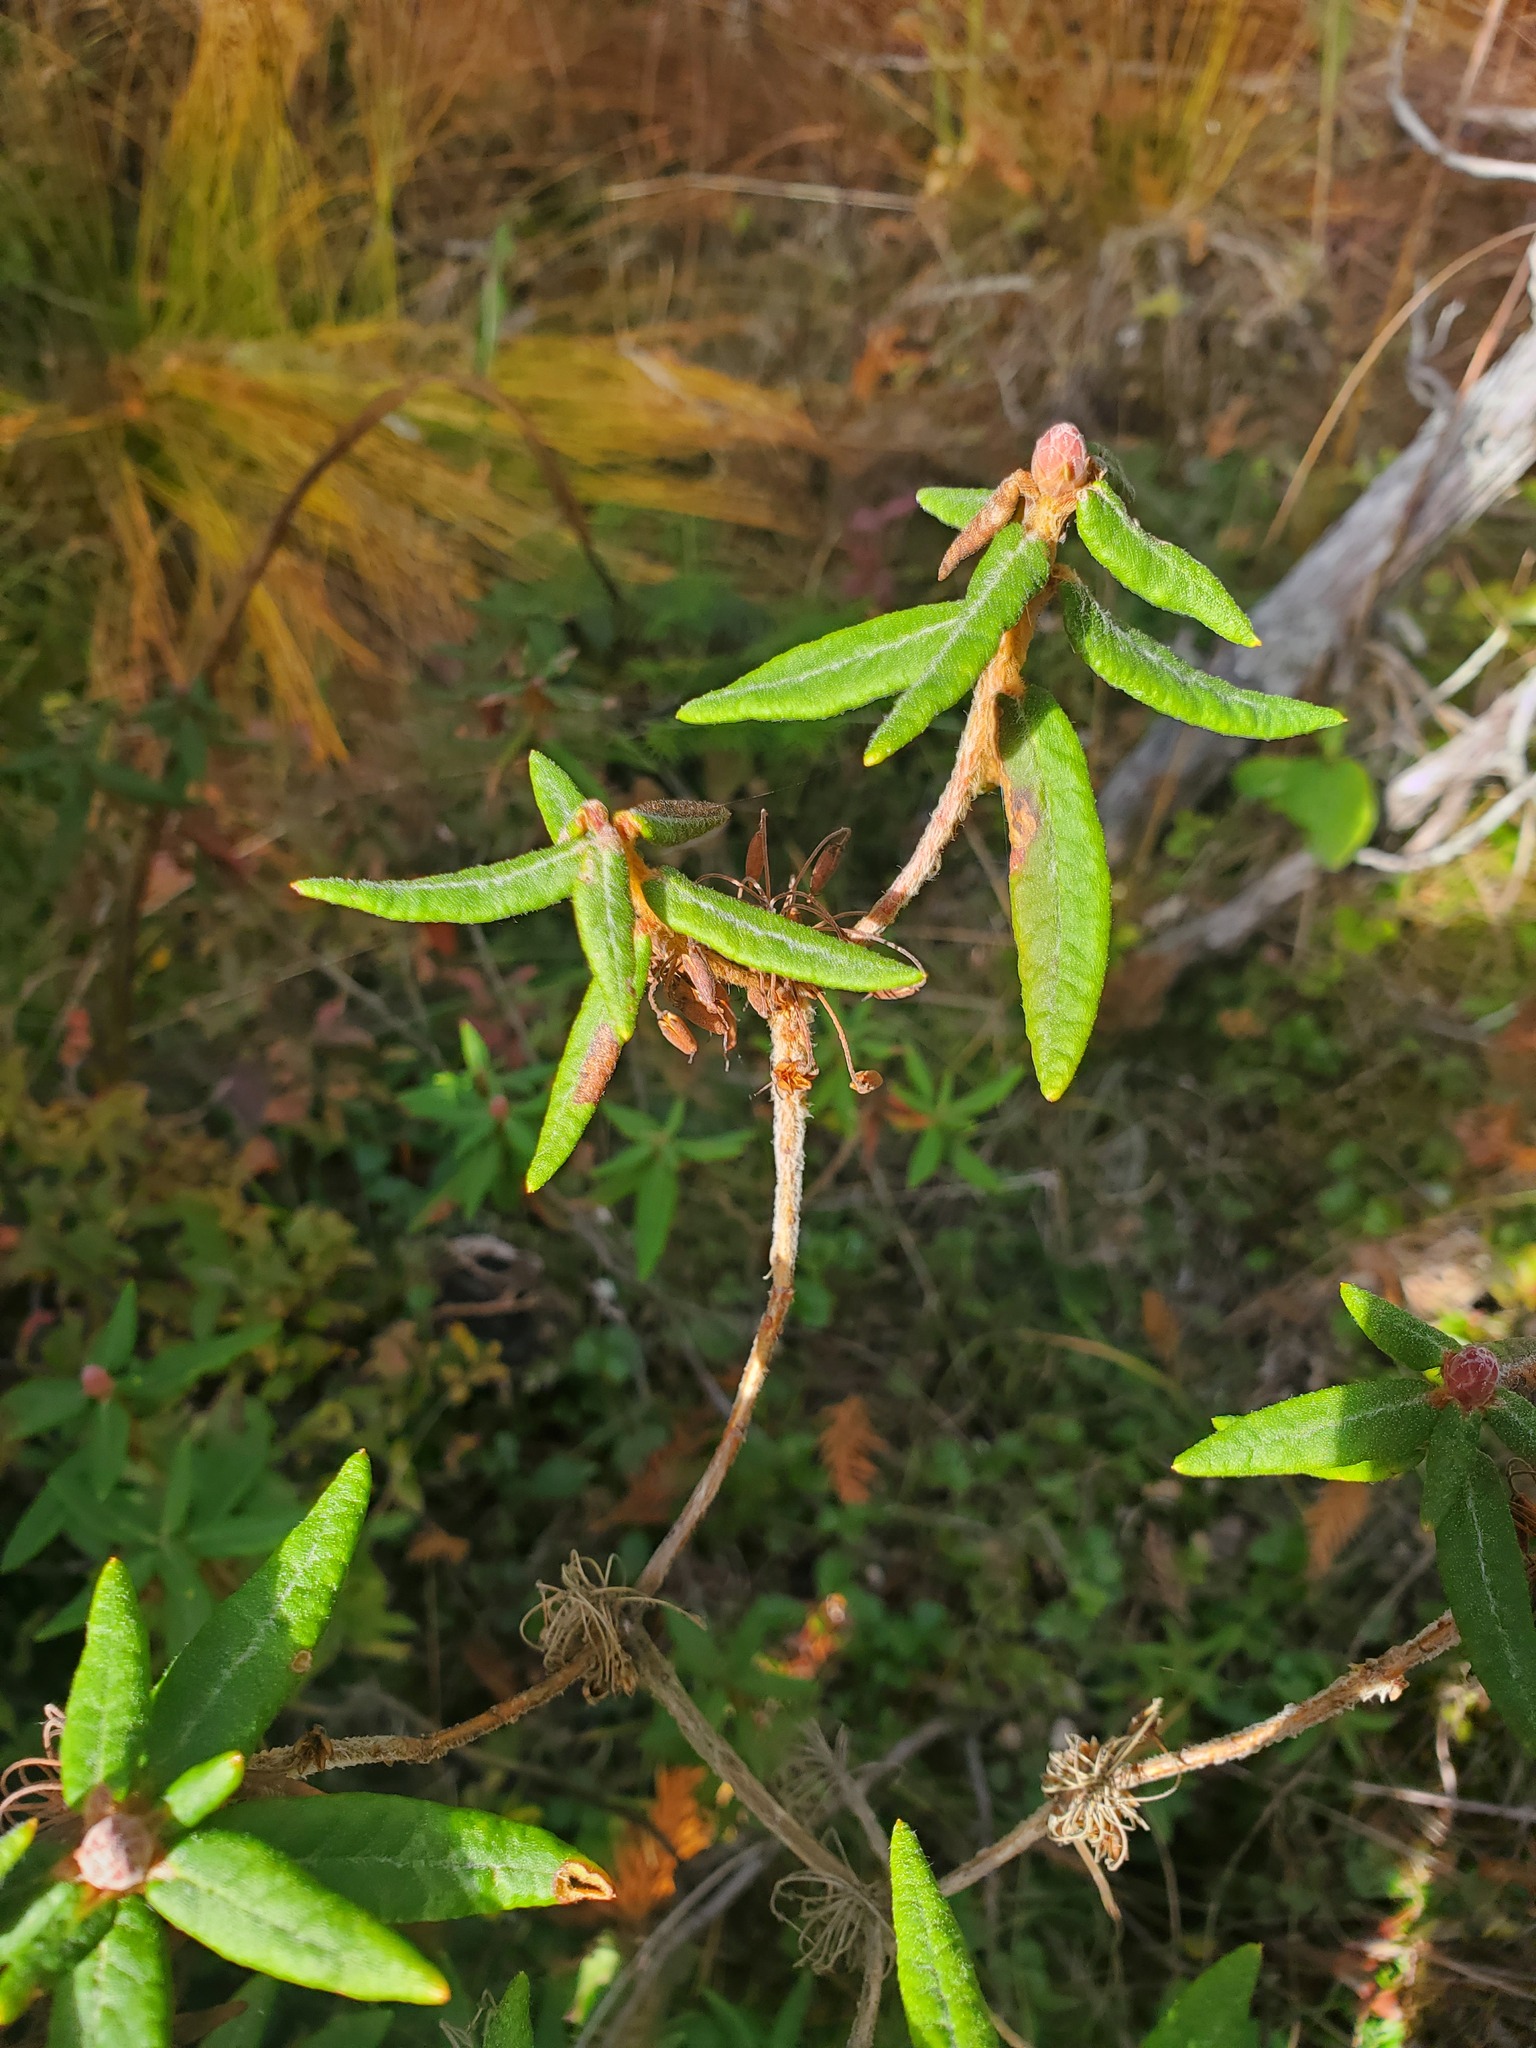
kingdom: Plantae
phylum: Tracheophyta
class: Magnoliopsida
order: Ericales
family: Ericaceae
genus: Rhododendron
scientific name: Rhododendron groenlandicum
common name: Bog labrador tea
